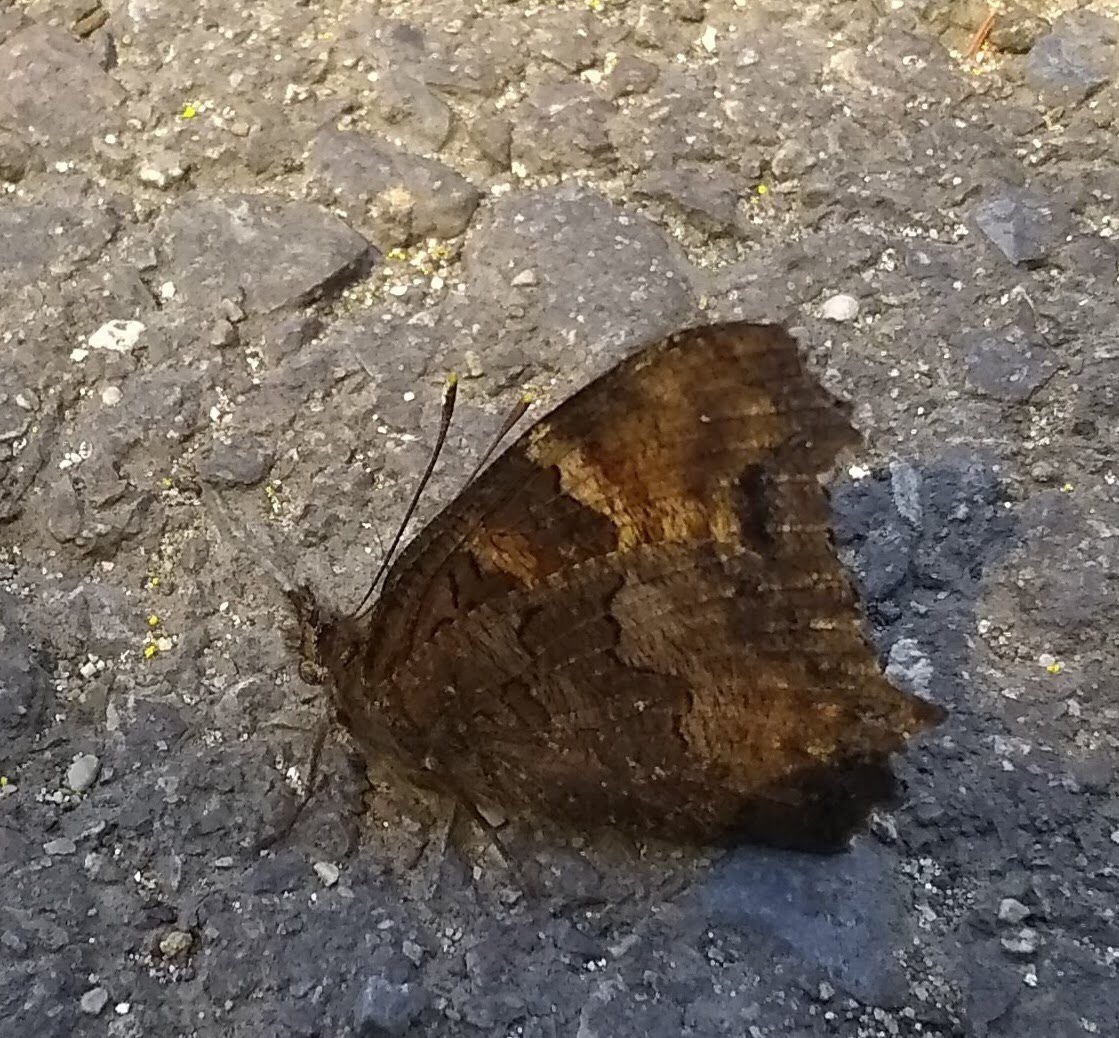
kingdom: Animalia
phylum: Arthropoda
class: Insecta
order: Lepidoptera
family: Nymphalidae
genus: Nymphalis
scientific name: Nymphalis californica
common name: California tortoiseshell
